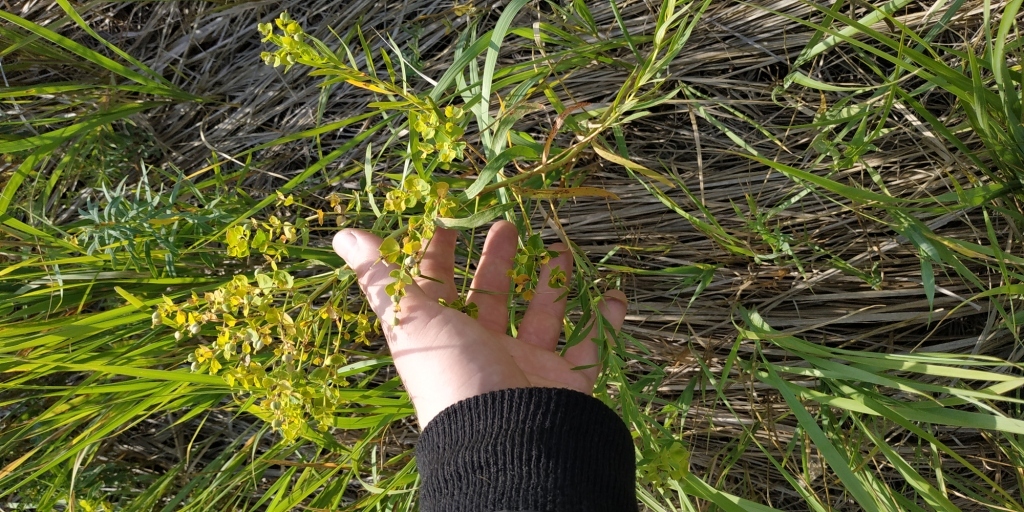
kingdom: Plantae
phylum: Tracheophyta
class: Magnoliopsida
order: Malpighiales
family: Euphorbiaceae
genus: Euphorbia
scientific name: Euphorbia virgata
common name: Leafy spurge
